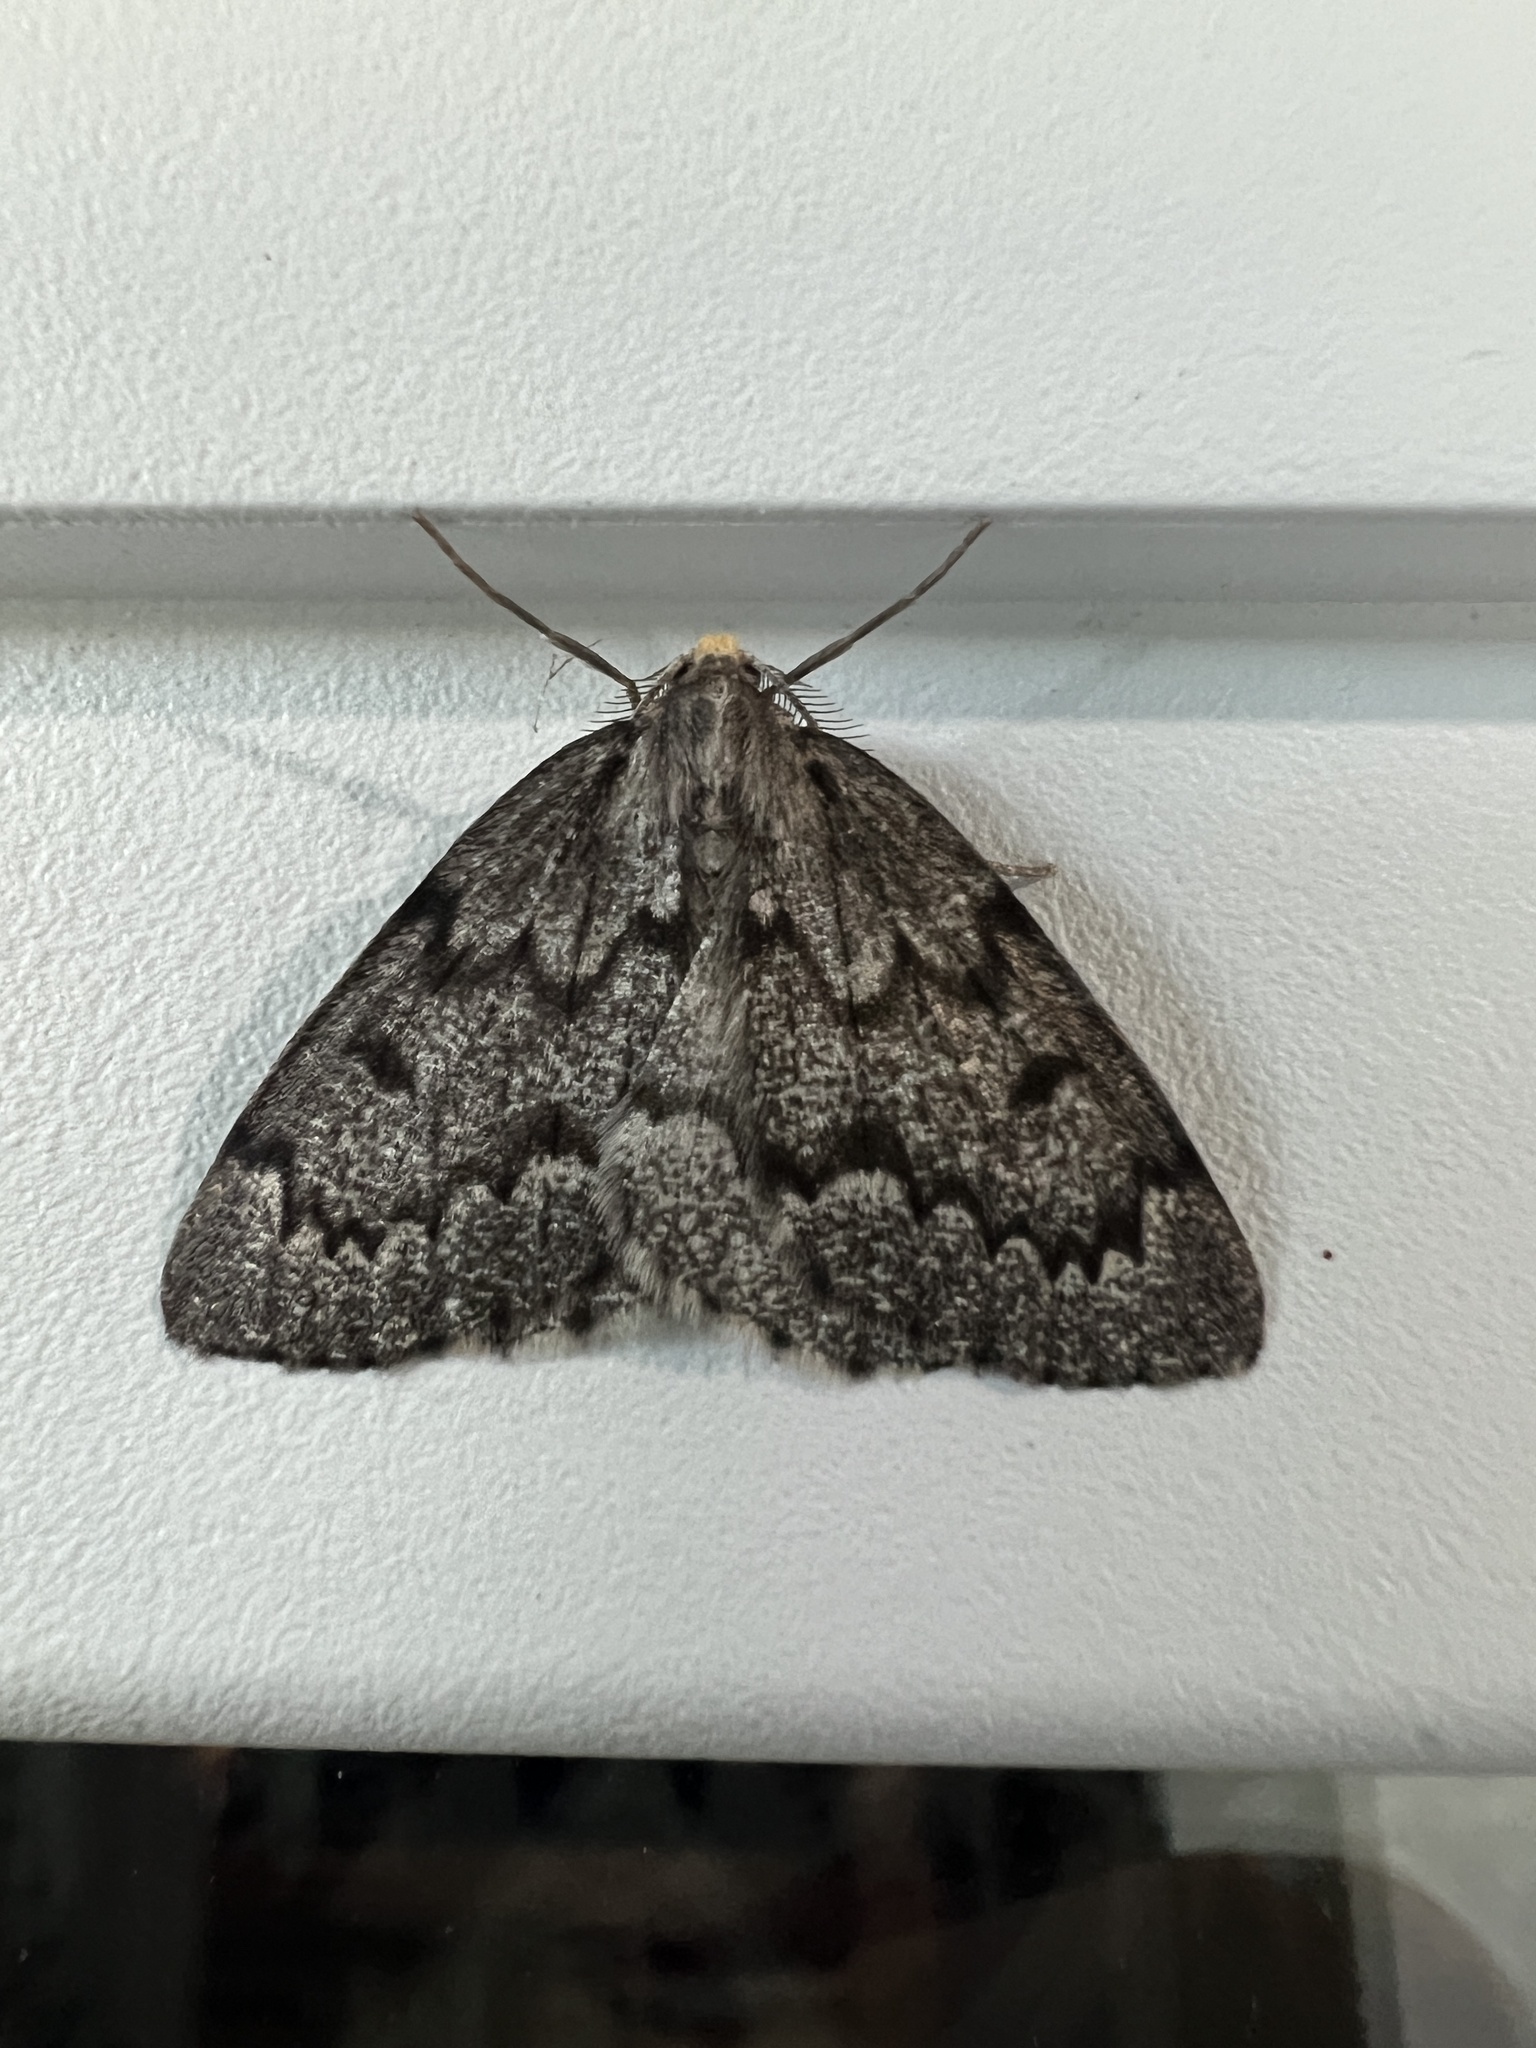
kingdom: Animalia
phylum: Arthropoda
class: Insecta
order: Lepidoptera
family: Geometridae
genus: Nepytia
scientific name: Nepytia canosaria
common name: False hemlock looper
